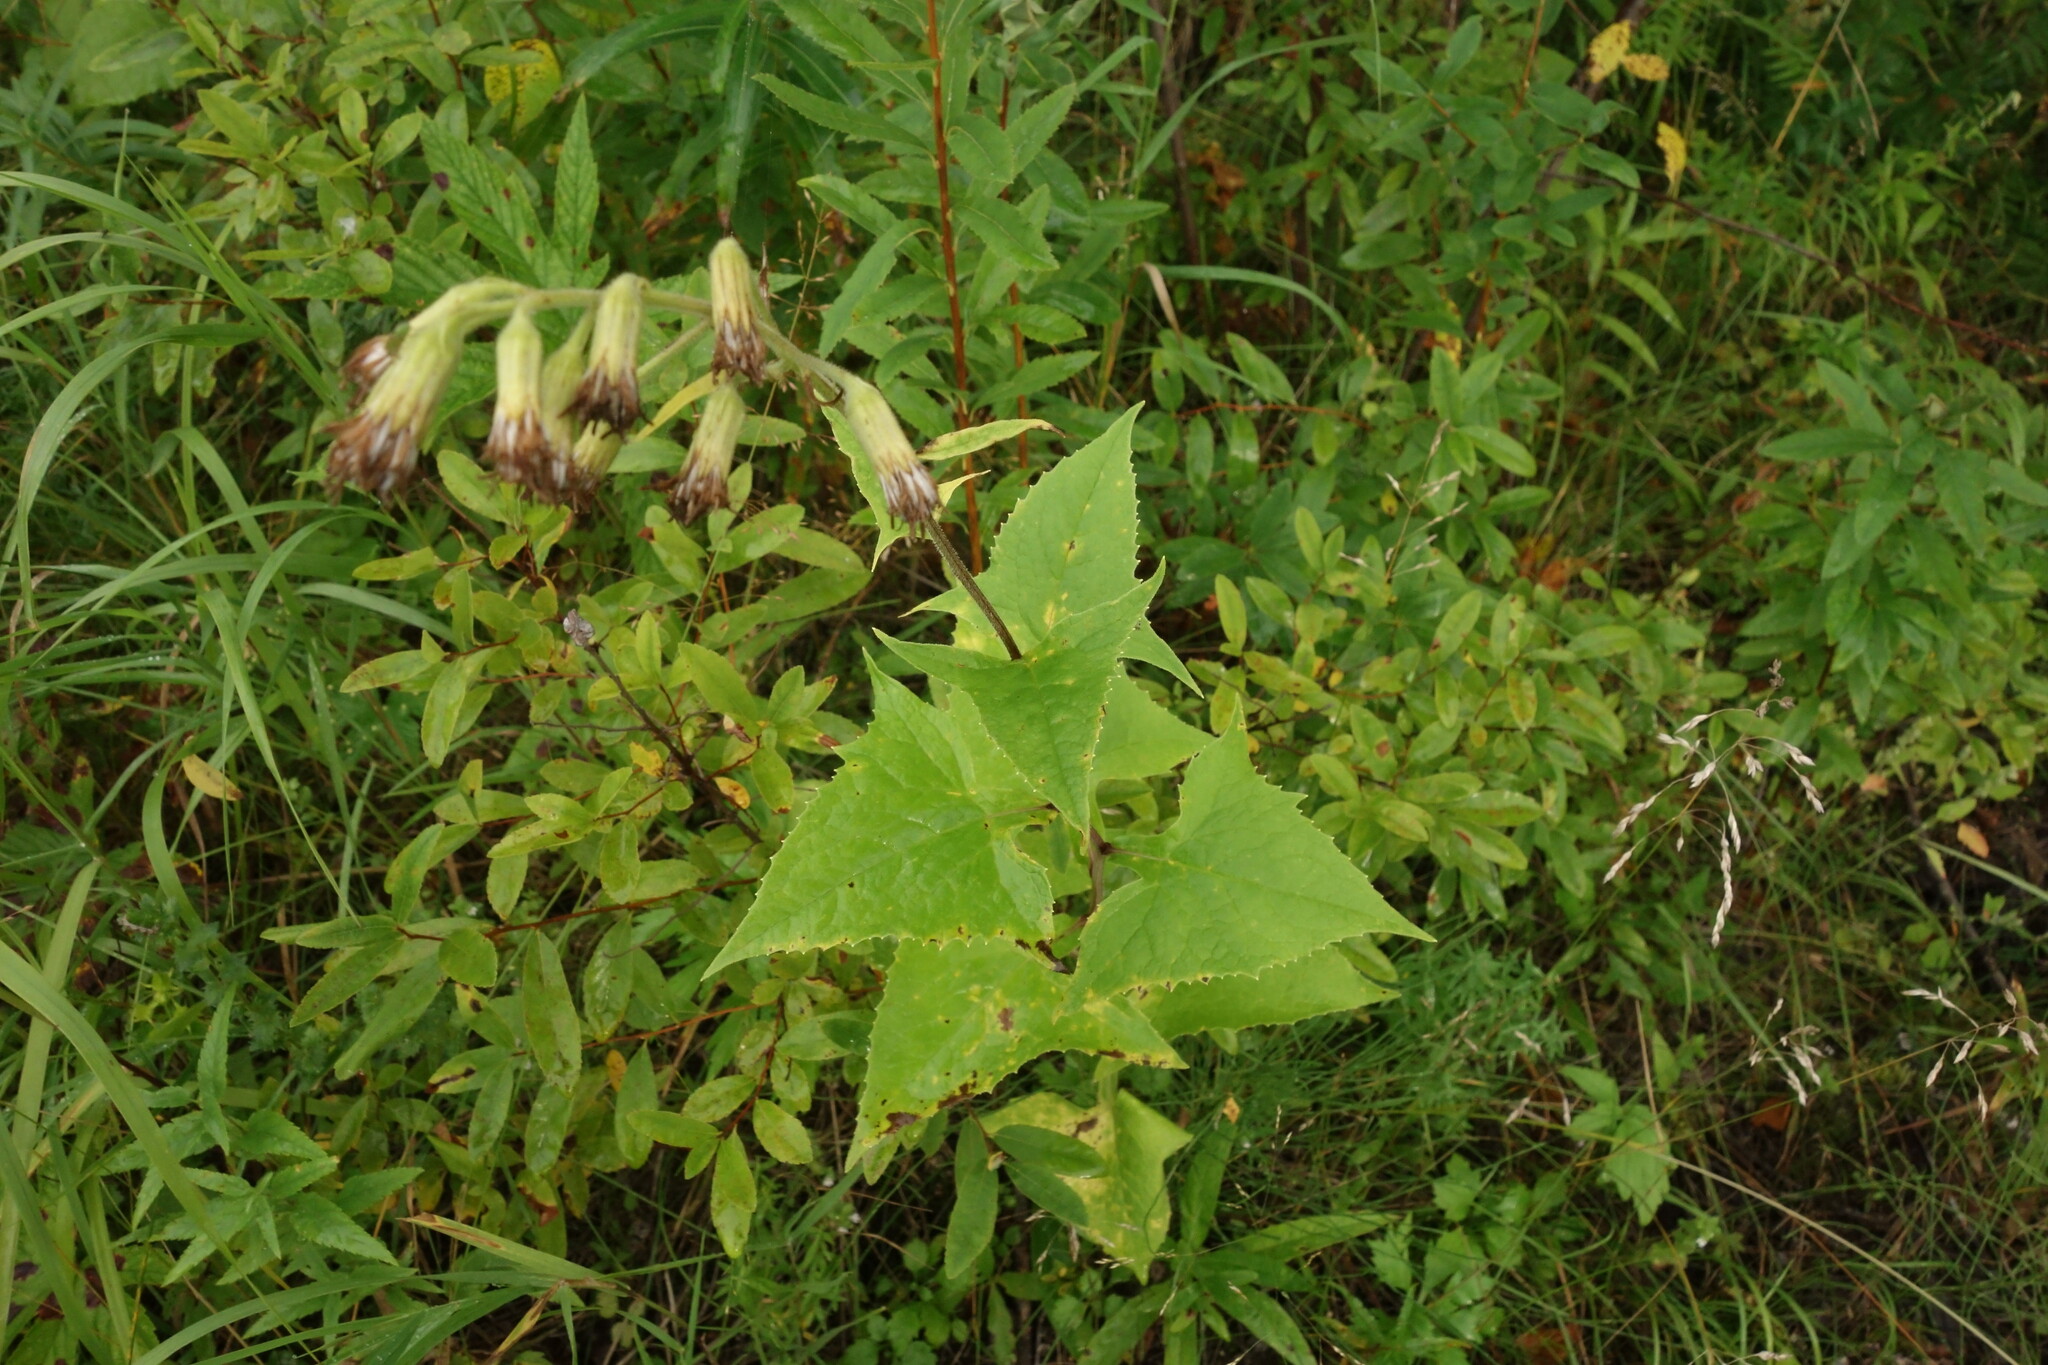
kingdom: Plantae
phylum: Tracheophyta
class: Magnoliopsida
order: Asterales
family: Asteraceae
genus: Parasenecio
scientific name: Parasenecio hastatus
